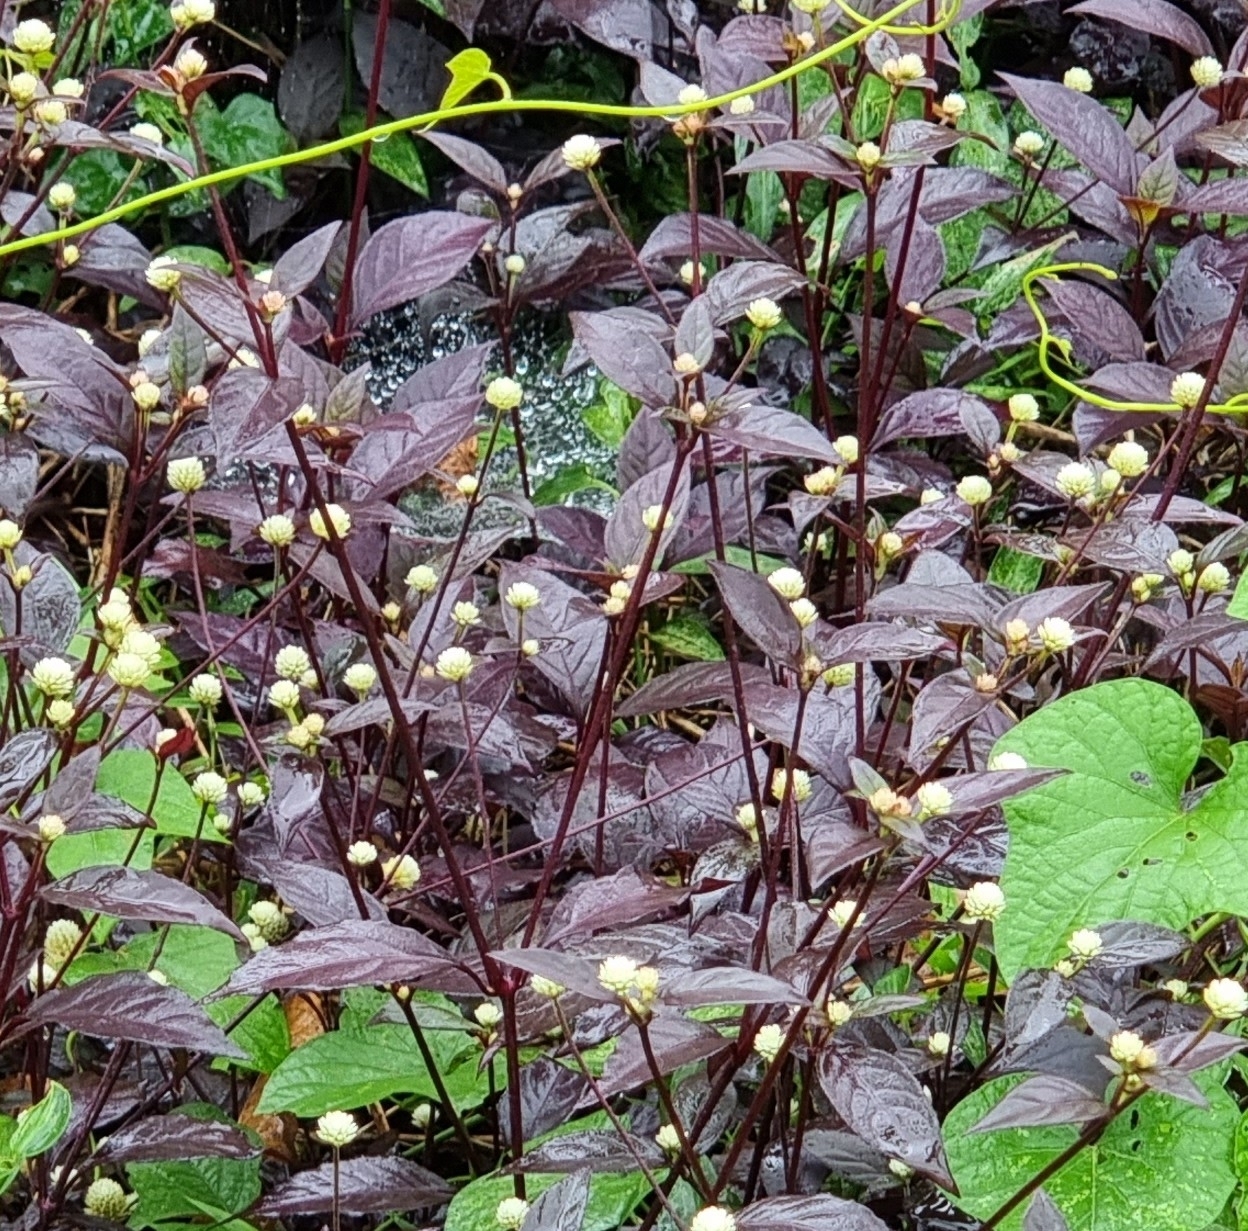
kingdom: Plantae
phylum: Tracheophyta
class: Magnoliopsida
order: Caryophyllales
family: Amaranthaceae
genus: Alternanthera
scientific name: Alternanthera brasiliana
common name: Brazilian joyweed
